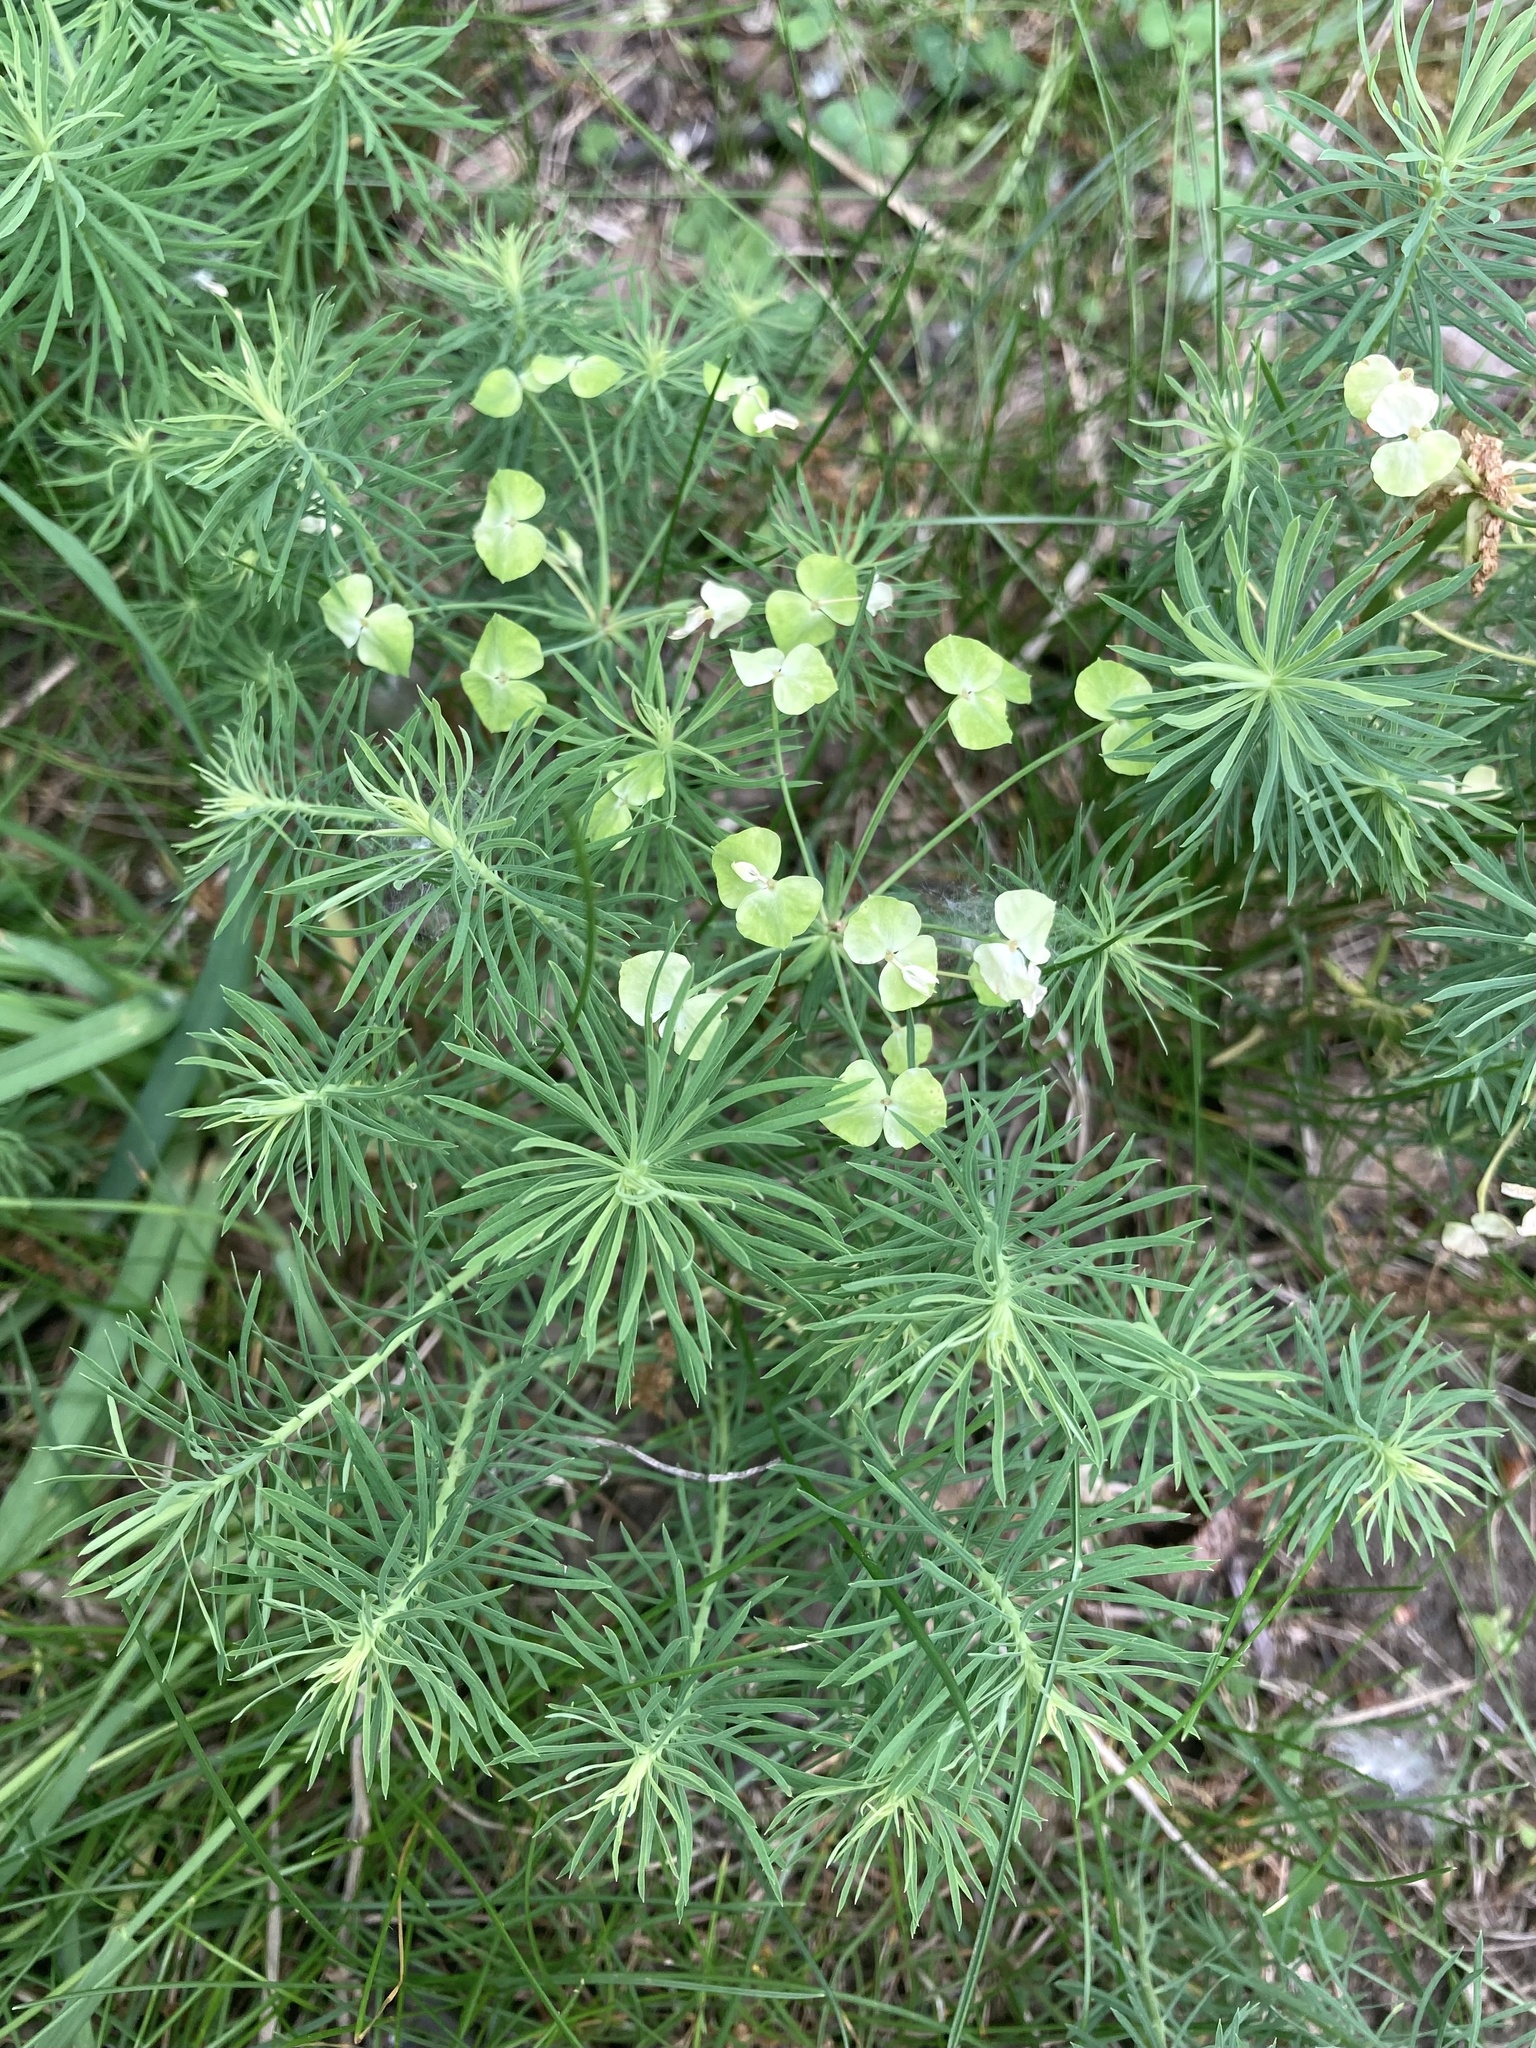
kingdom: Plantae
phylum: Tracheophyta
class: Magnoliopsida
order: Malpighiales
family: Euphorbiaceae
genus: Euphorbia
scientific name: Euphorbia cyparissias
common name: Cypress spurge
